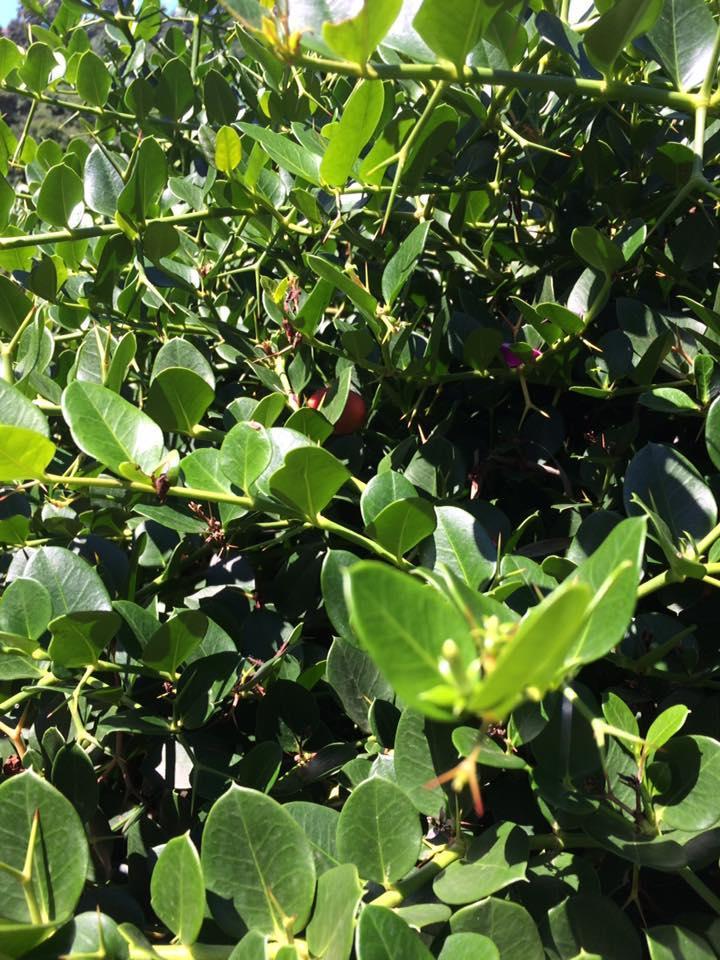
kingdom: Plantae
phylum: Tracheophyta
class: Magnoliopsida
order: Gentianales
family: Apocynaceae
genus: Carissa
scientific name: Carissa macrocarpa
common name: Natal plum
